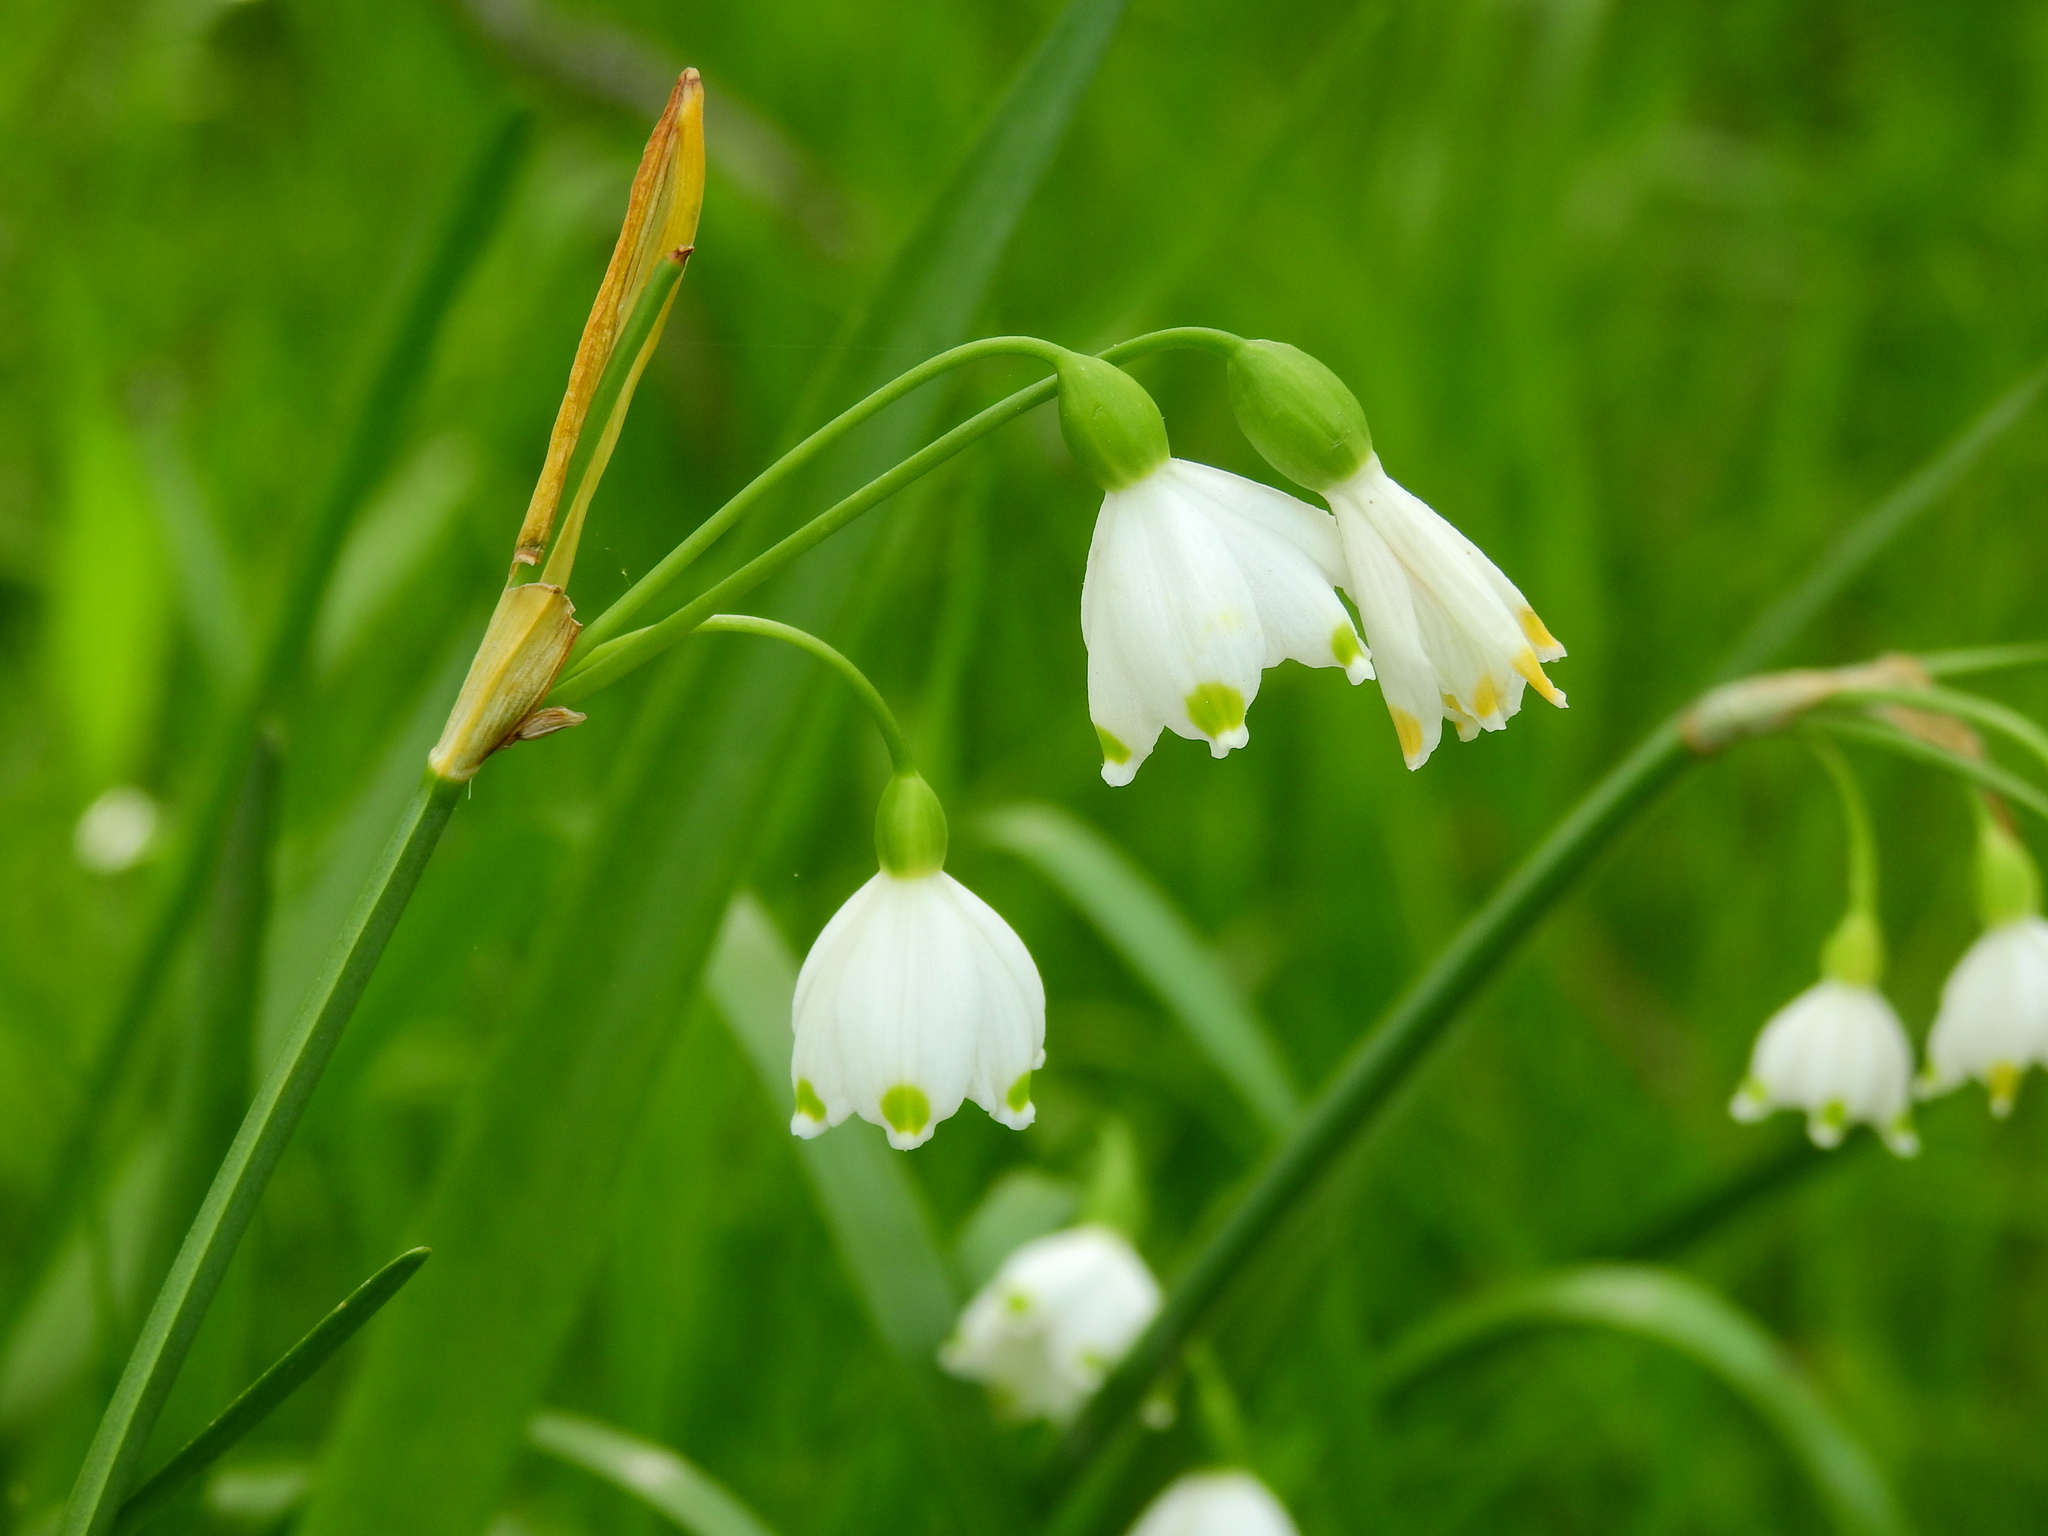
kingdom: Plantae
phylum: Tracheophyta
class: Liliopsida
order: Asparagales
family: Amaryllidaceae
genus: Leucojum
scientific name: Leucojum aestivum
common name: Summer snowflake
